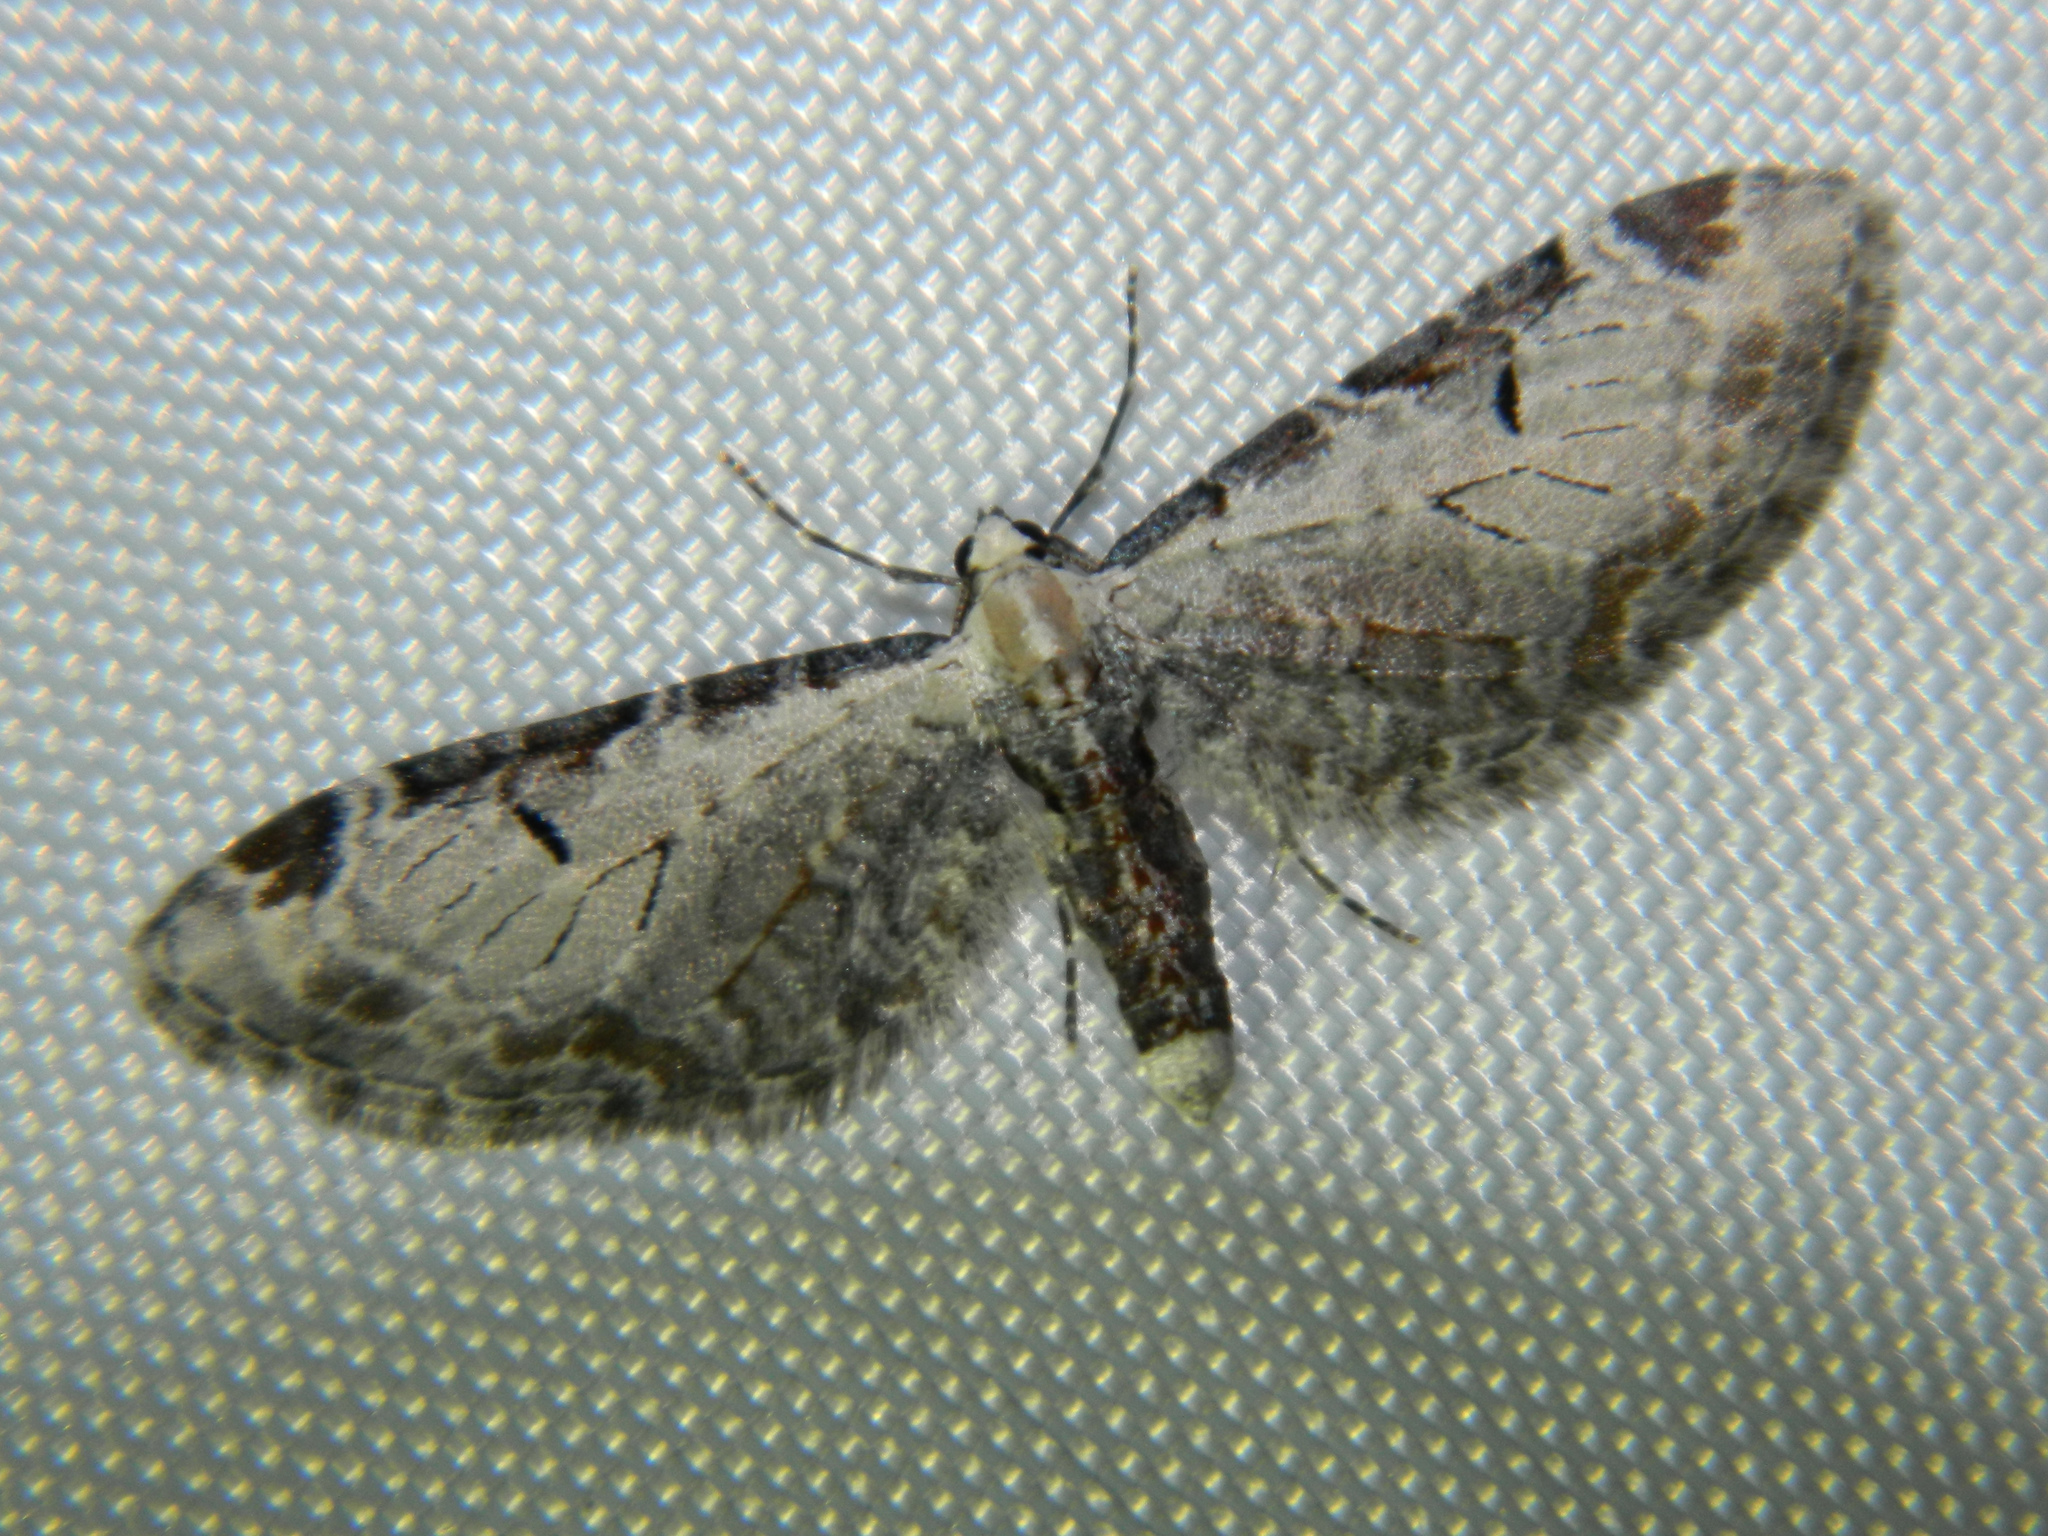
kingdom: Animalia
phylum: Arthropoda
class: Insecta
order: Lepidoptera
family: Geometridae
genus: Eupithecia
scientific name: Eupithecia ravocostaliata
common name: Great varigated pug
